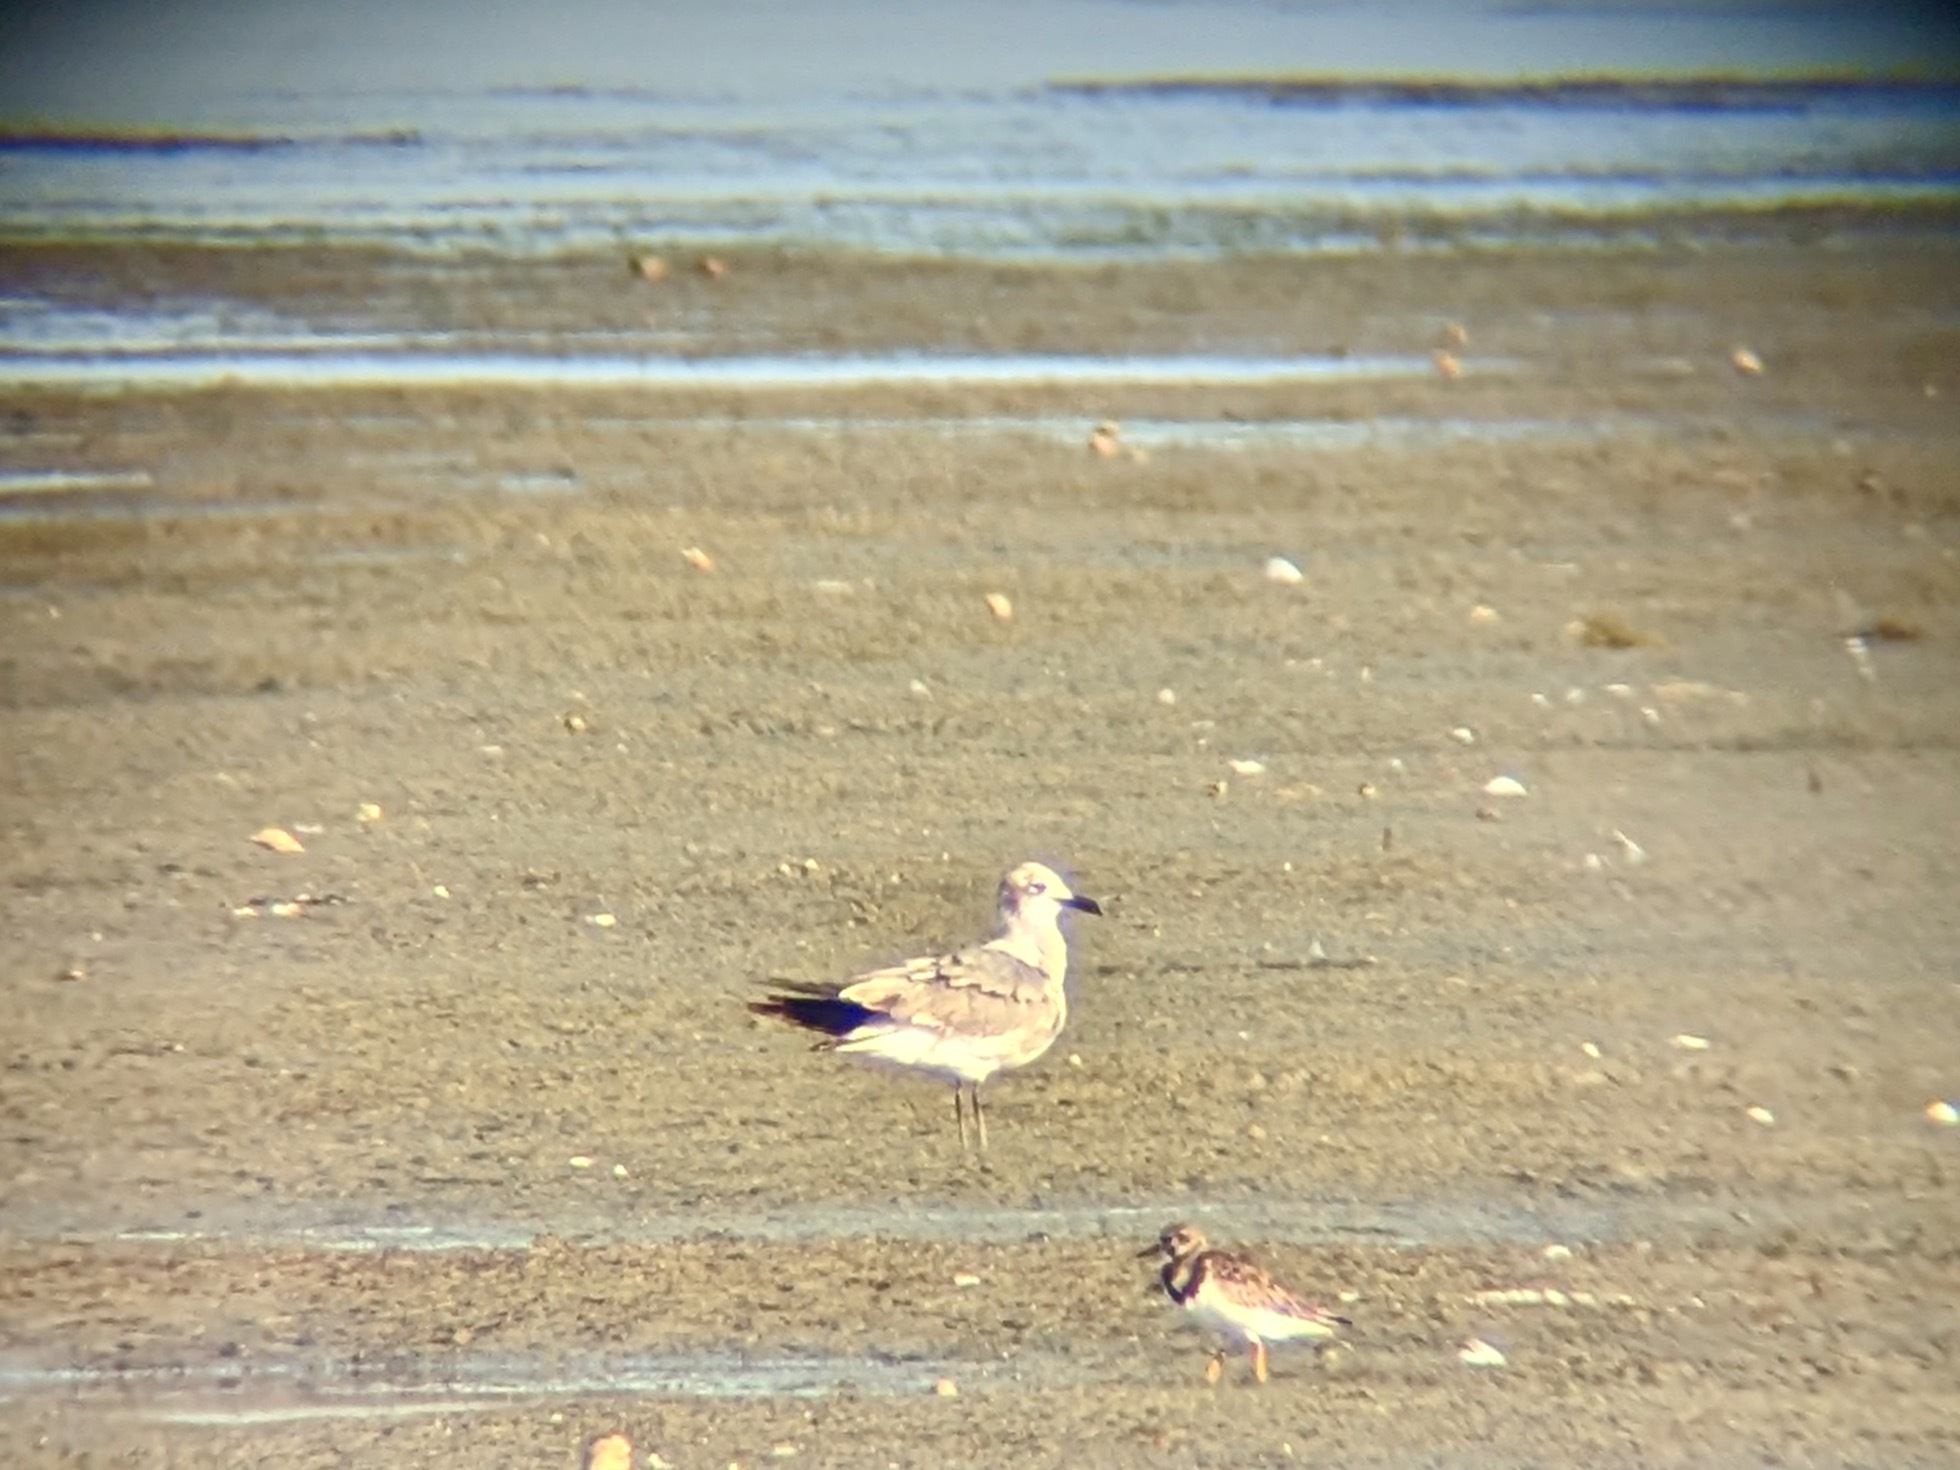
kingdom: Animalia
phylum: Chordata
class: Aves
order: Charadriiformes
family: Scolopacidae
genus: Arenaria
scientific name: Arenaria interpres
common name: Ruddy turnstone
